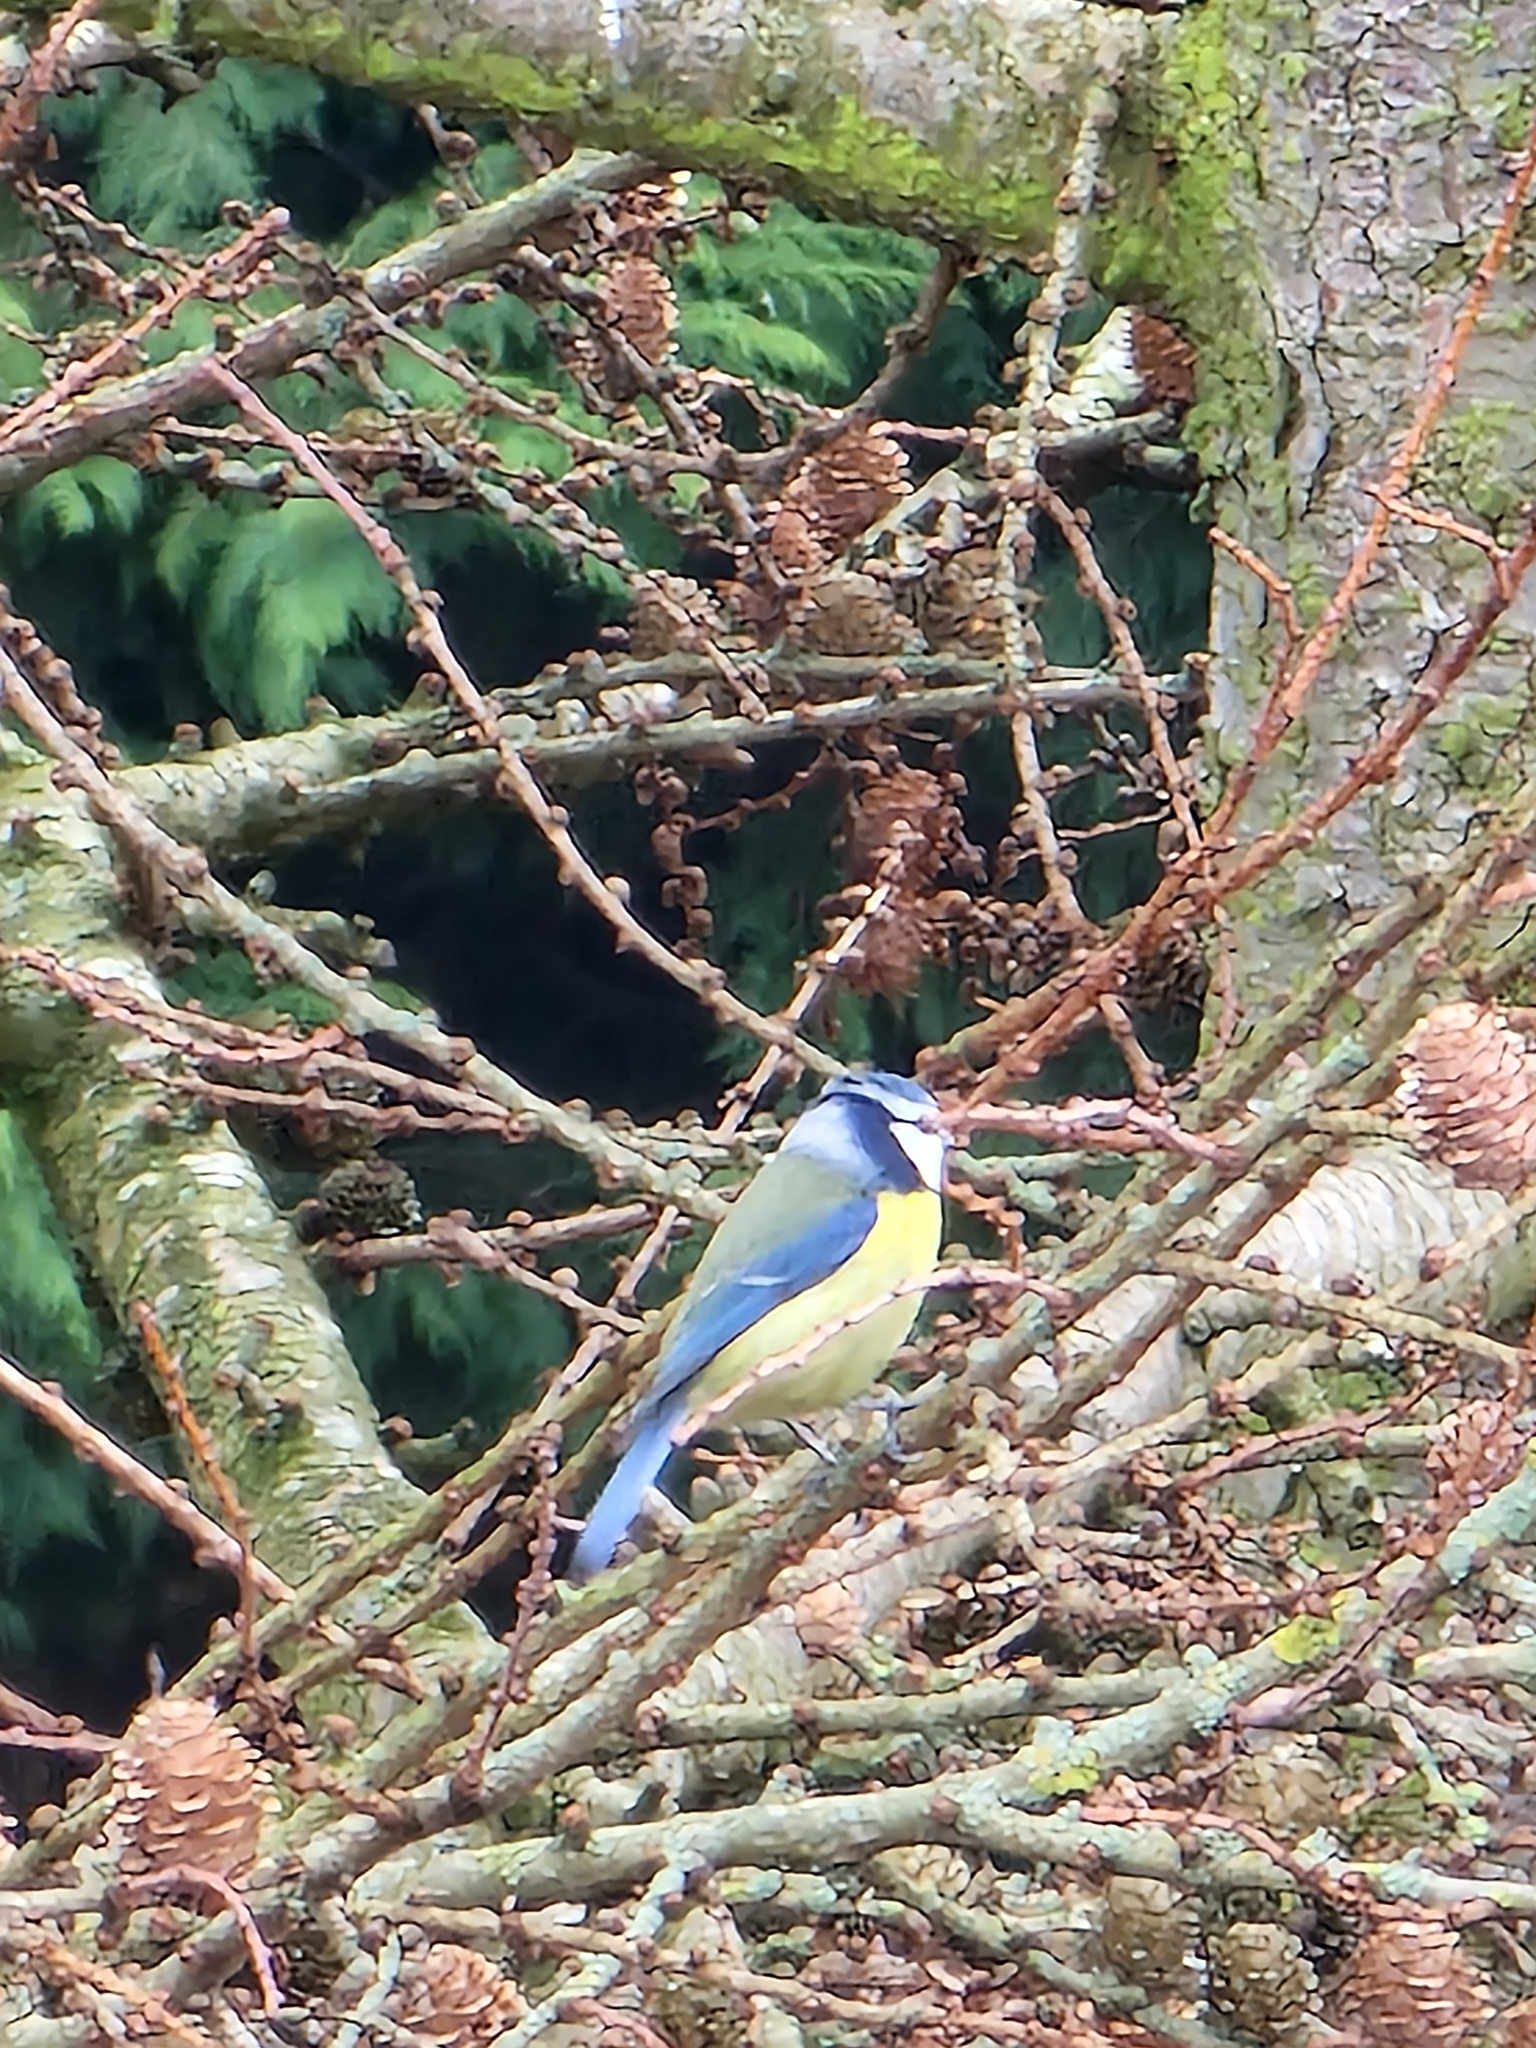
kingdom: Animalia
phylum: Chordata
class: Aves
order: Passeriformes
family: Paridae
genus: Cyanistes
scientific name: Cyanistes caeruleus
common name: Eurasian blue tit
